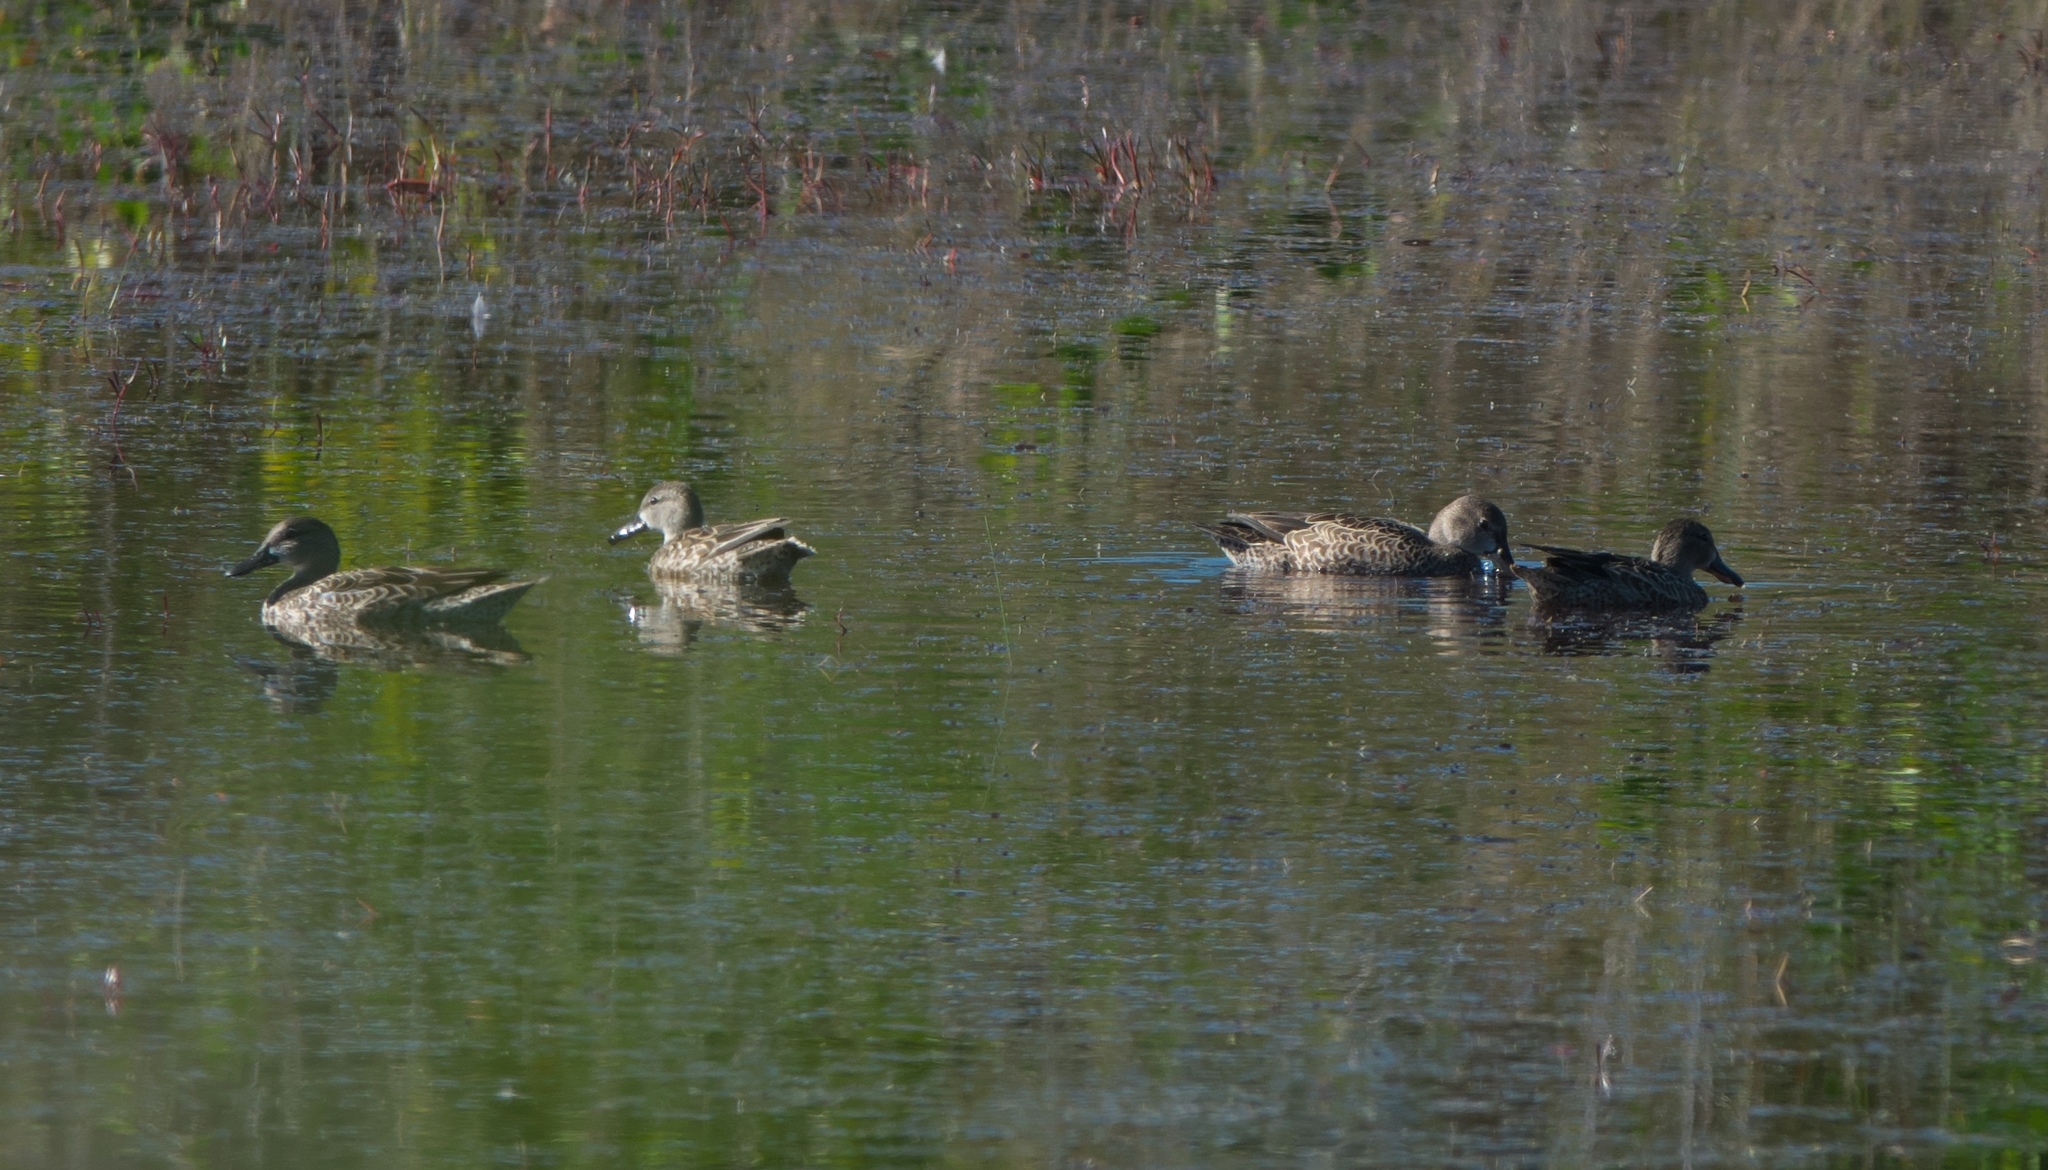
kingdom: Animalia
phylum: Chordata
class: Aves
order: Anseriformes
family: Anatidae
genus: Spatula
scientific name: Spatula discors
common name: Blue-winged teal
